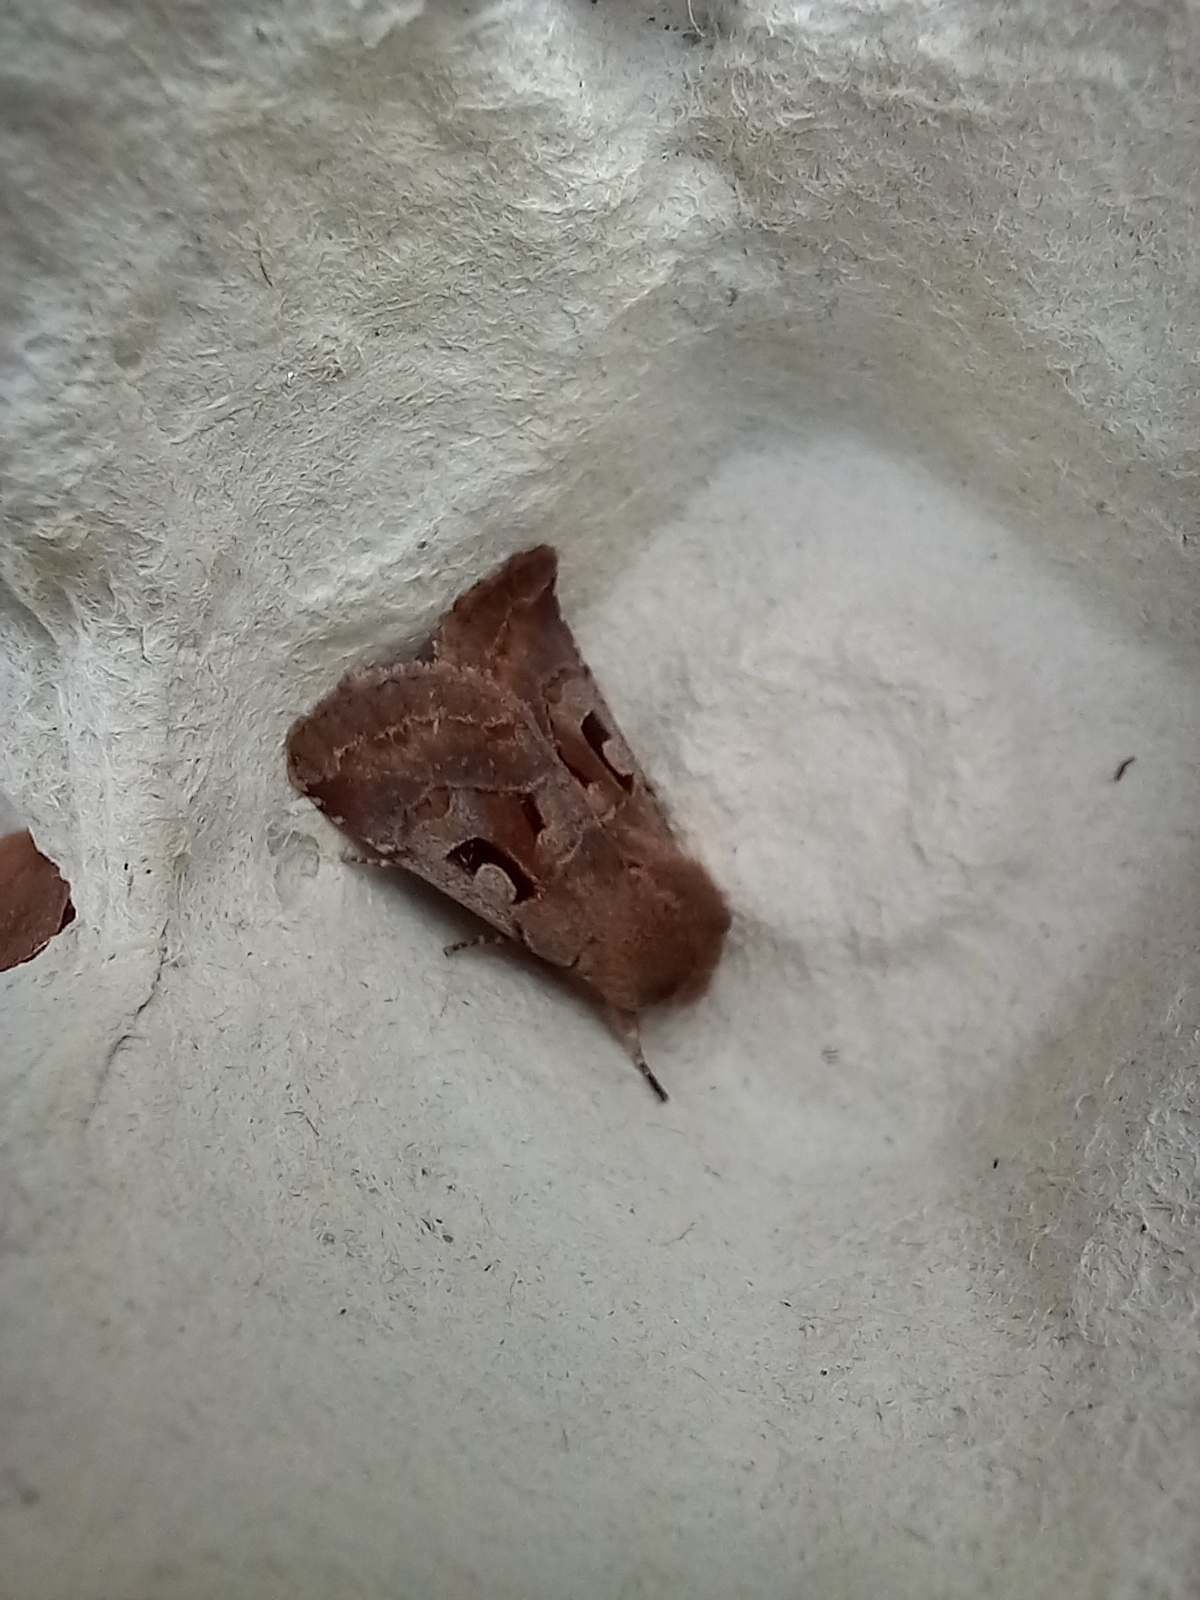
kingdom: Animalia
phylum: Arthropoda
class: Insecta
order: Lepidoptera
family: Noctuidae
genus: Orthosia
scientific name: Orthosia gothica
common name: Hebrew character
